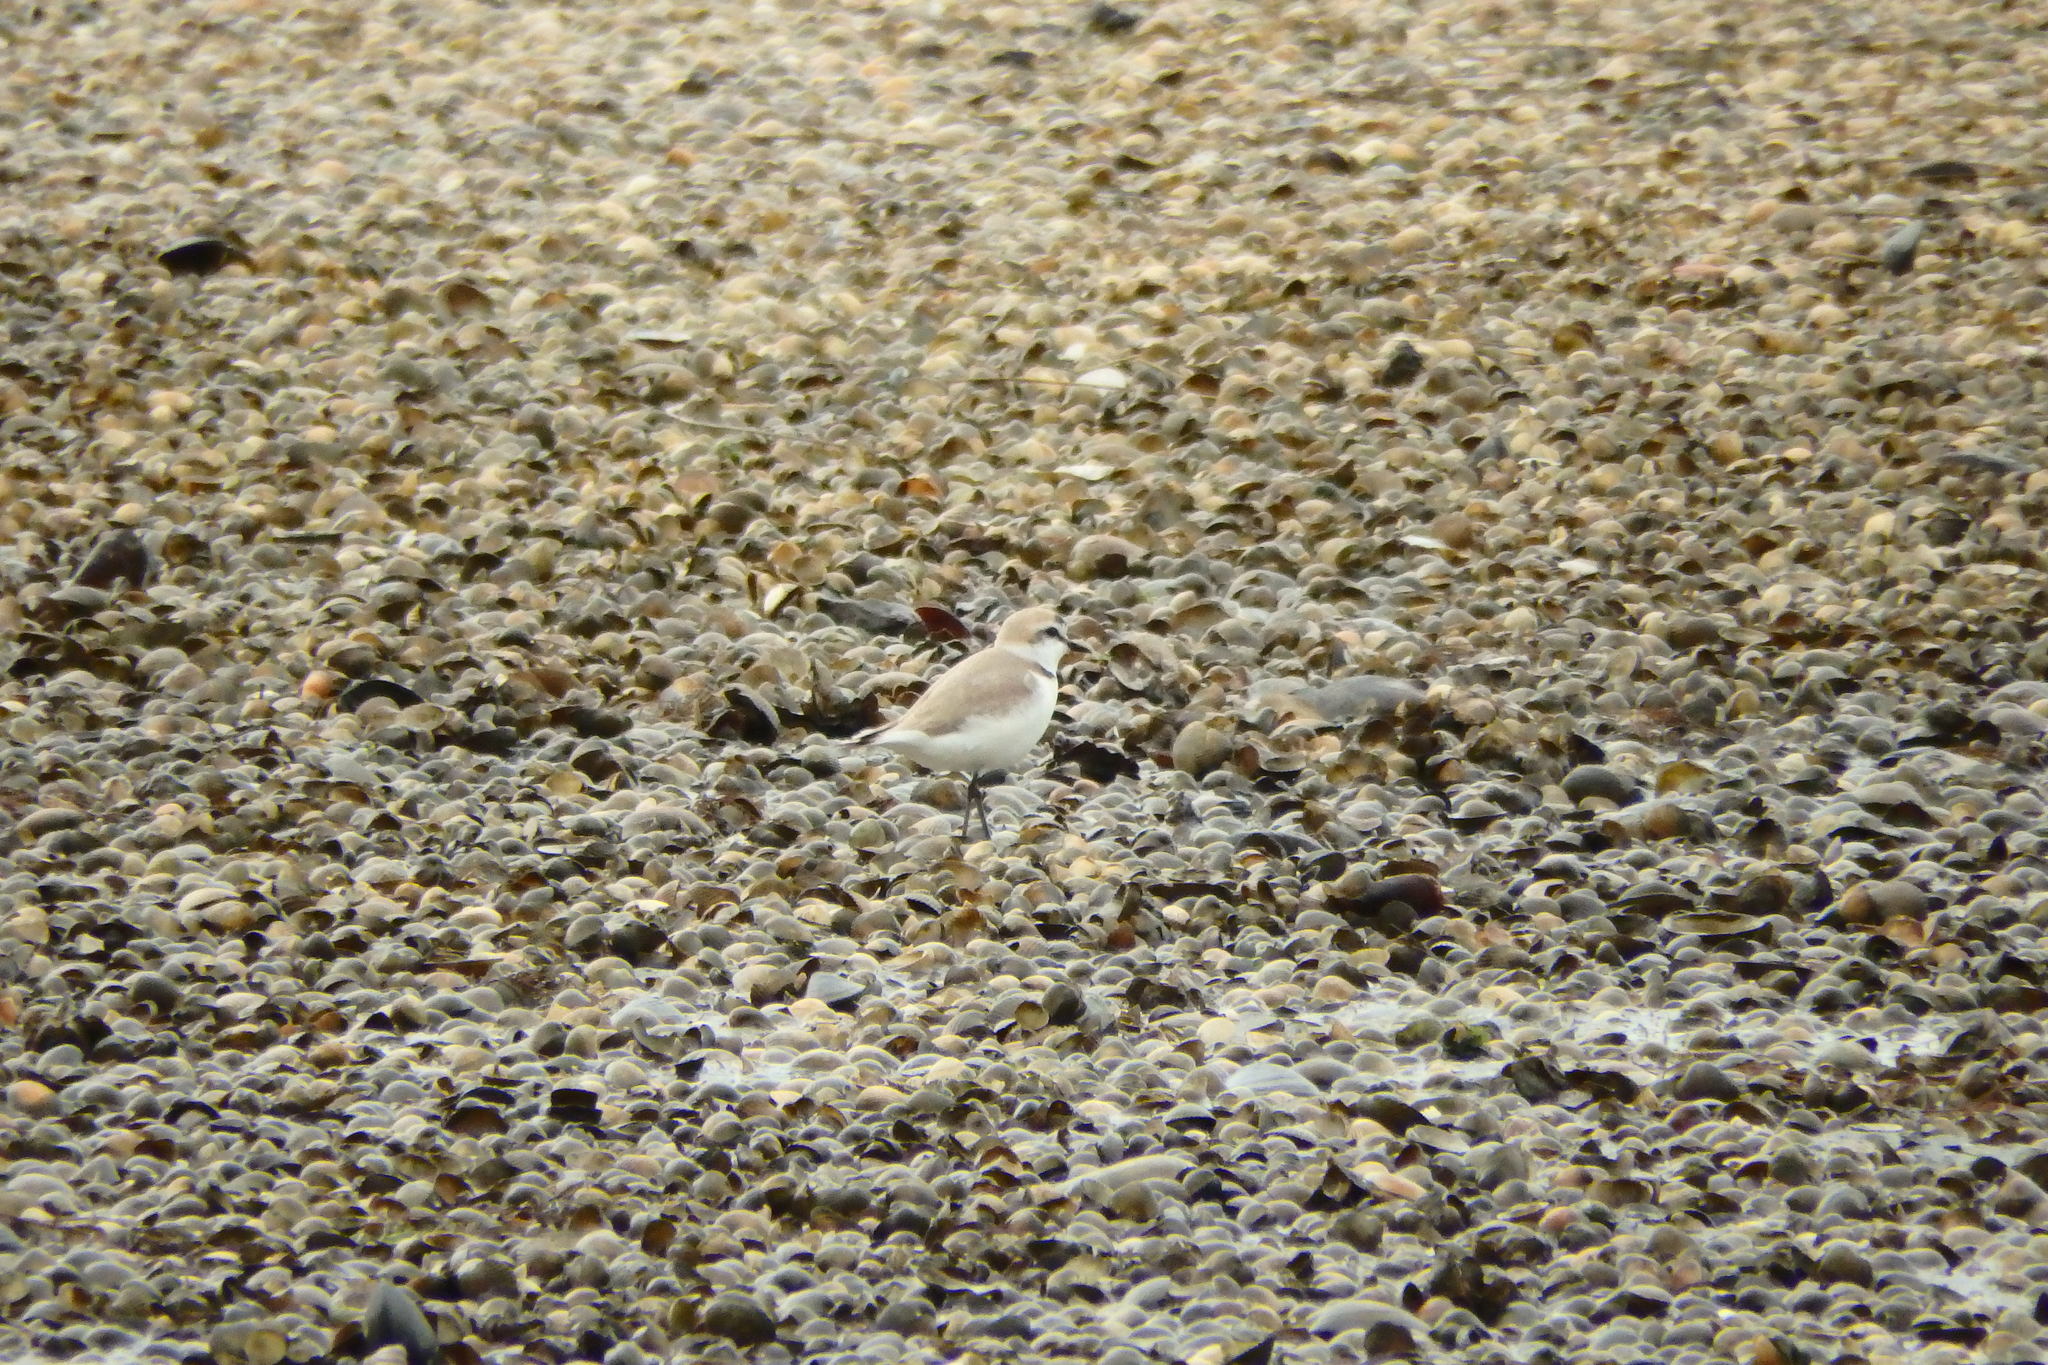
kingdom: Animalia
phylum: Chordata
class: Aves
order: Charadriiformes
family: Charadriidae
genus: Charadrius
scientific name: Charadrius alexandrinus
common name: Kentish plover
